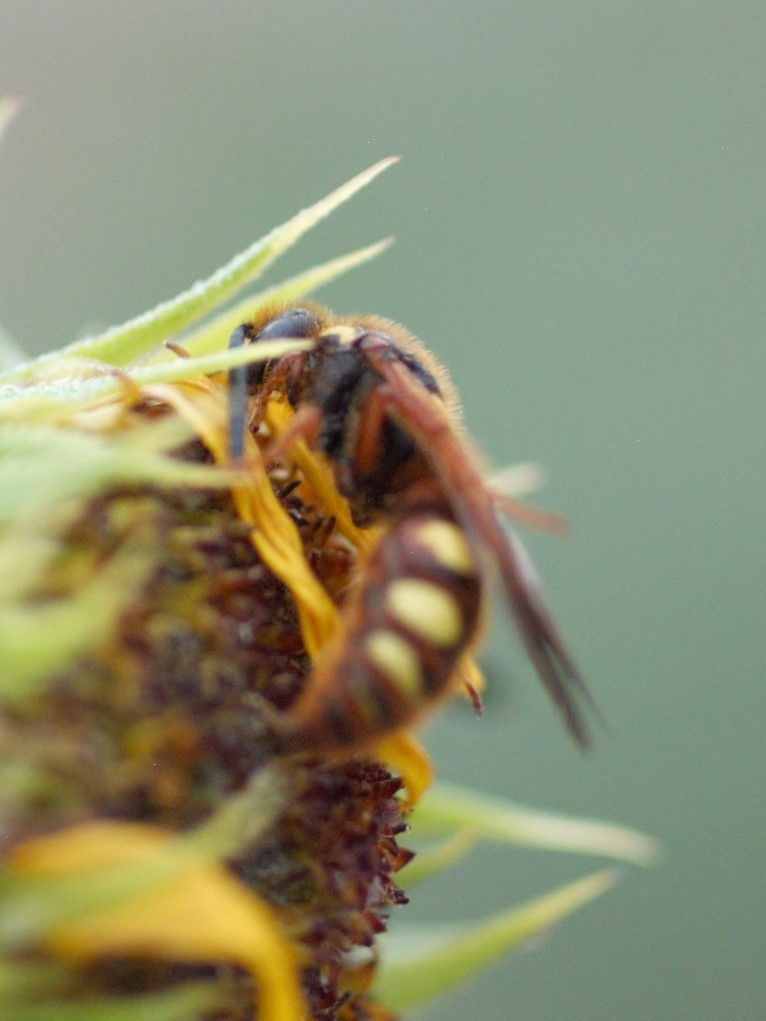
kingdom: Animalia
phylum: Arthropoda
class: Insecta
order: Hymenoptera
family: Scoliidae
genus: Scolia
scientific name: Scolia nobilitata
